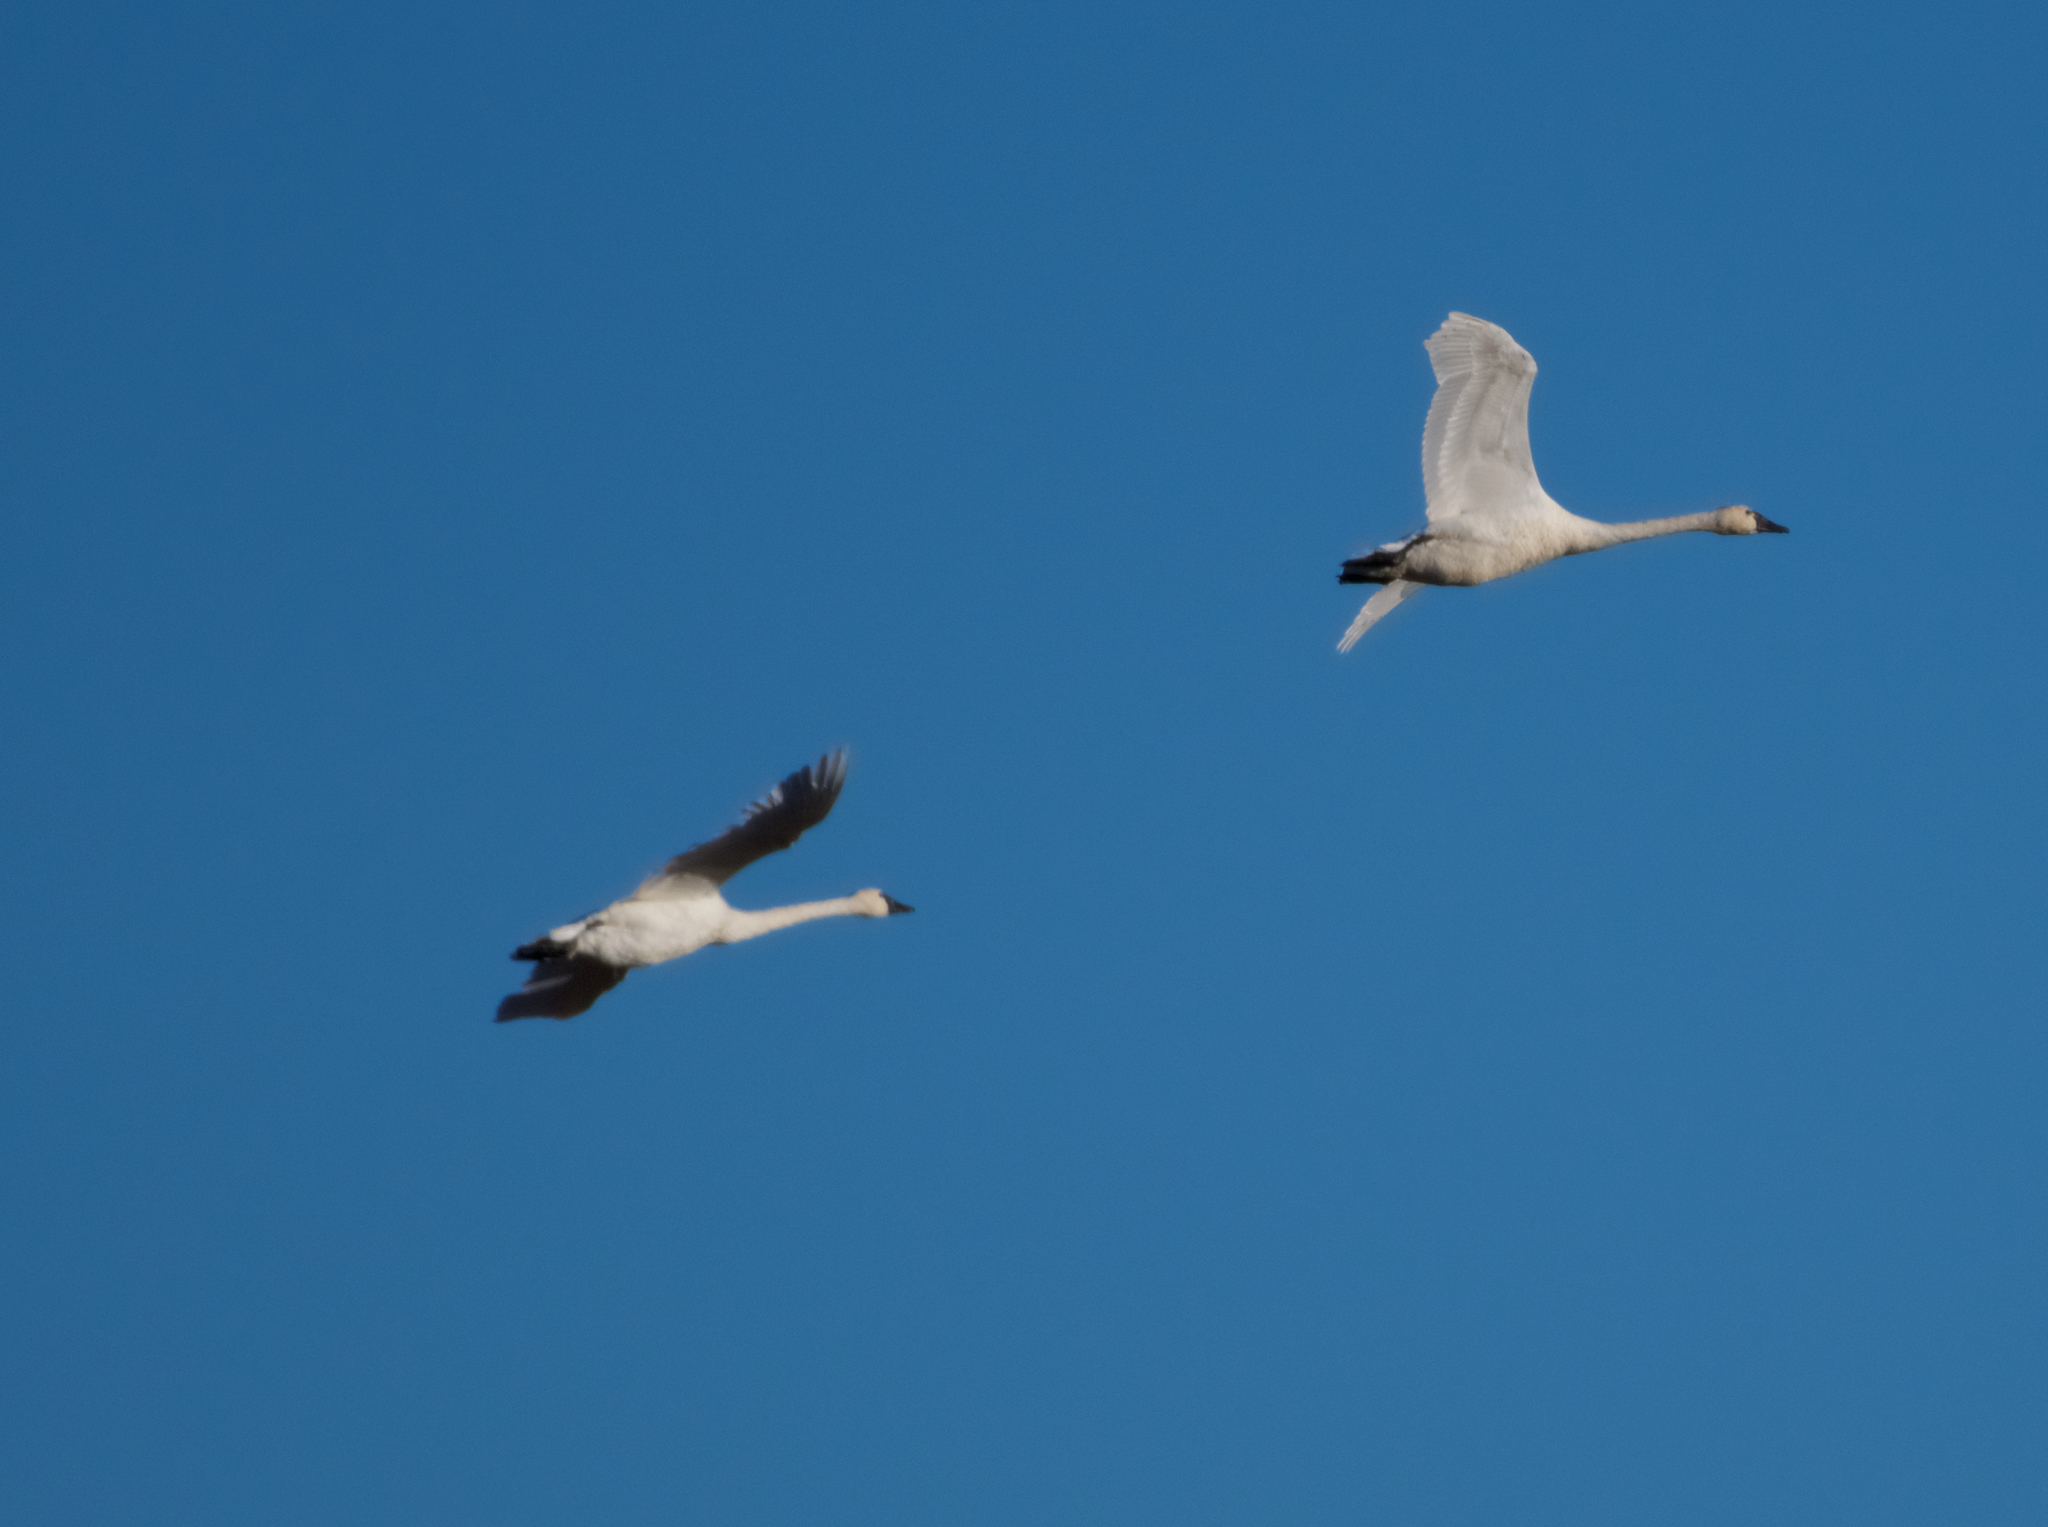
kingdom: Animalia
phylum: Chordata
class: Aves
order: Anseriformes
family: Anatidae
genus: Cygnus
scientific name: Cygnus columbianus
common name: Tundra swan
